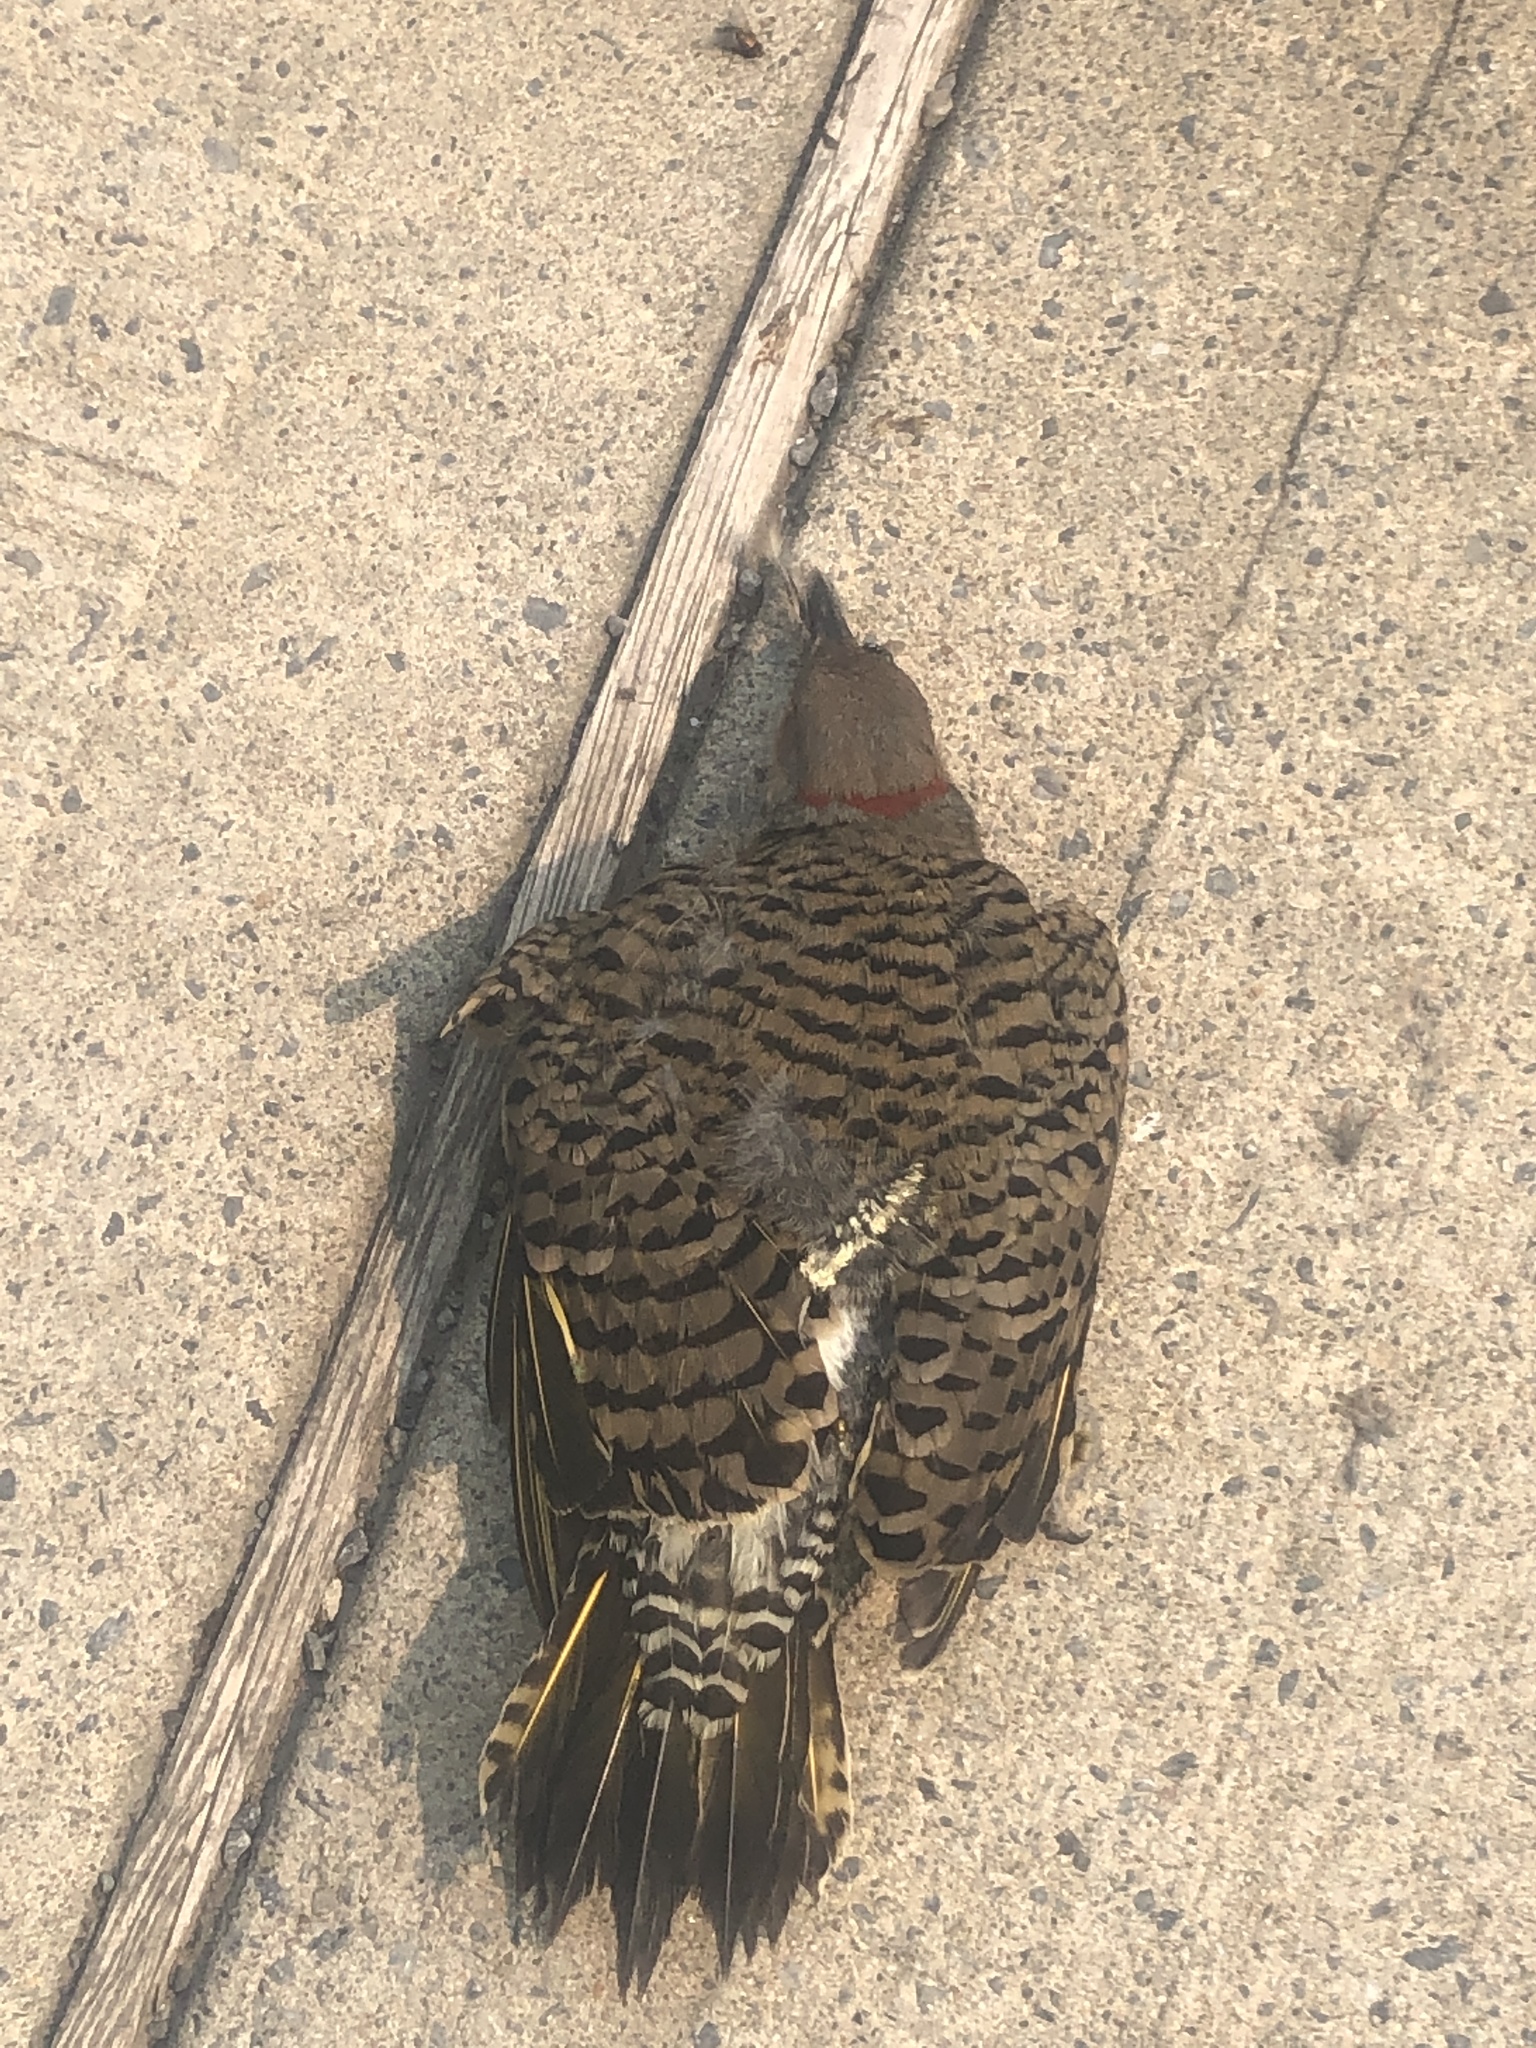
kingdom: Animalia
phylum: Chordata
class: Aves
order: Piciformes
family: Picidae
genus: Colaptes
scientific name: Colaptes auratus
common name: Northern flicker
